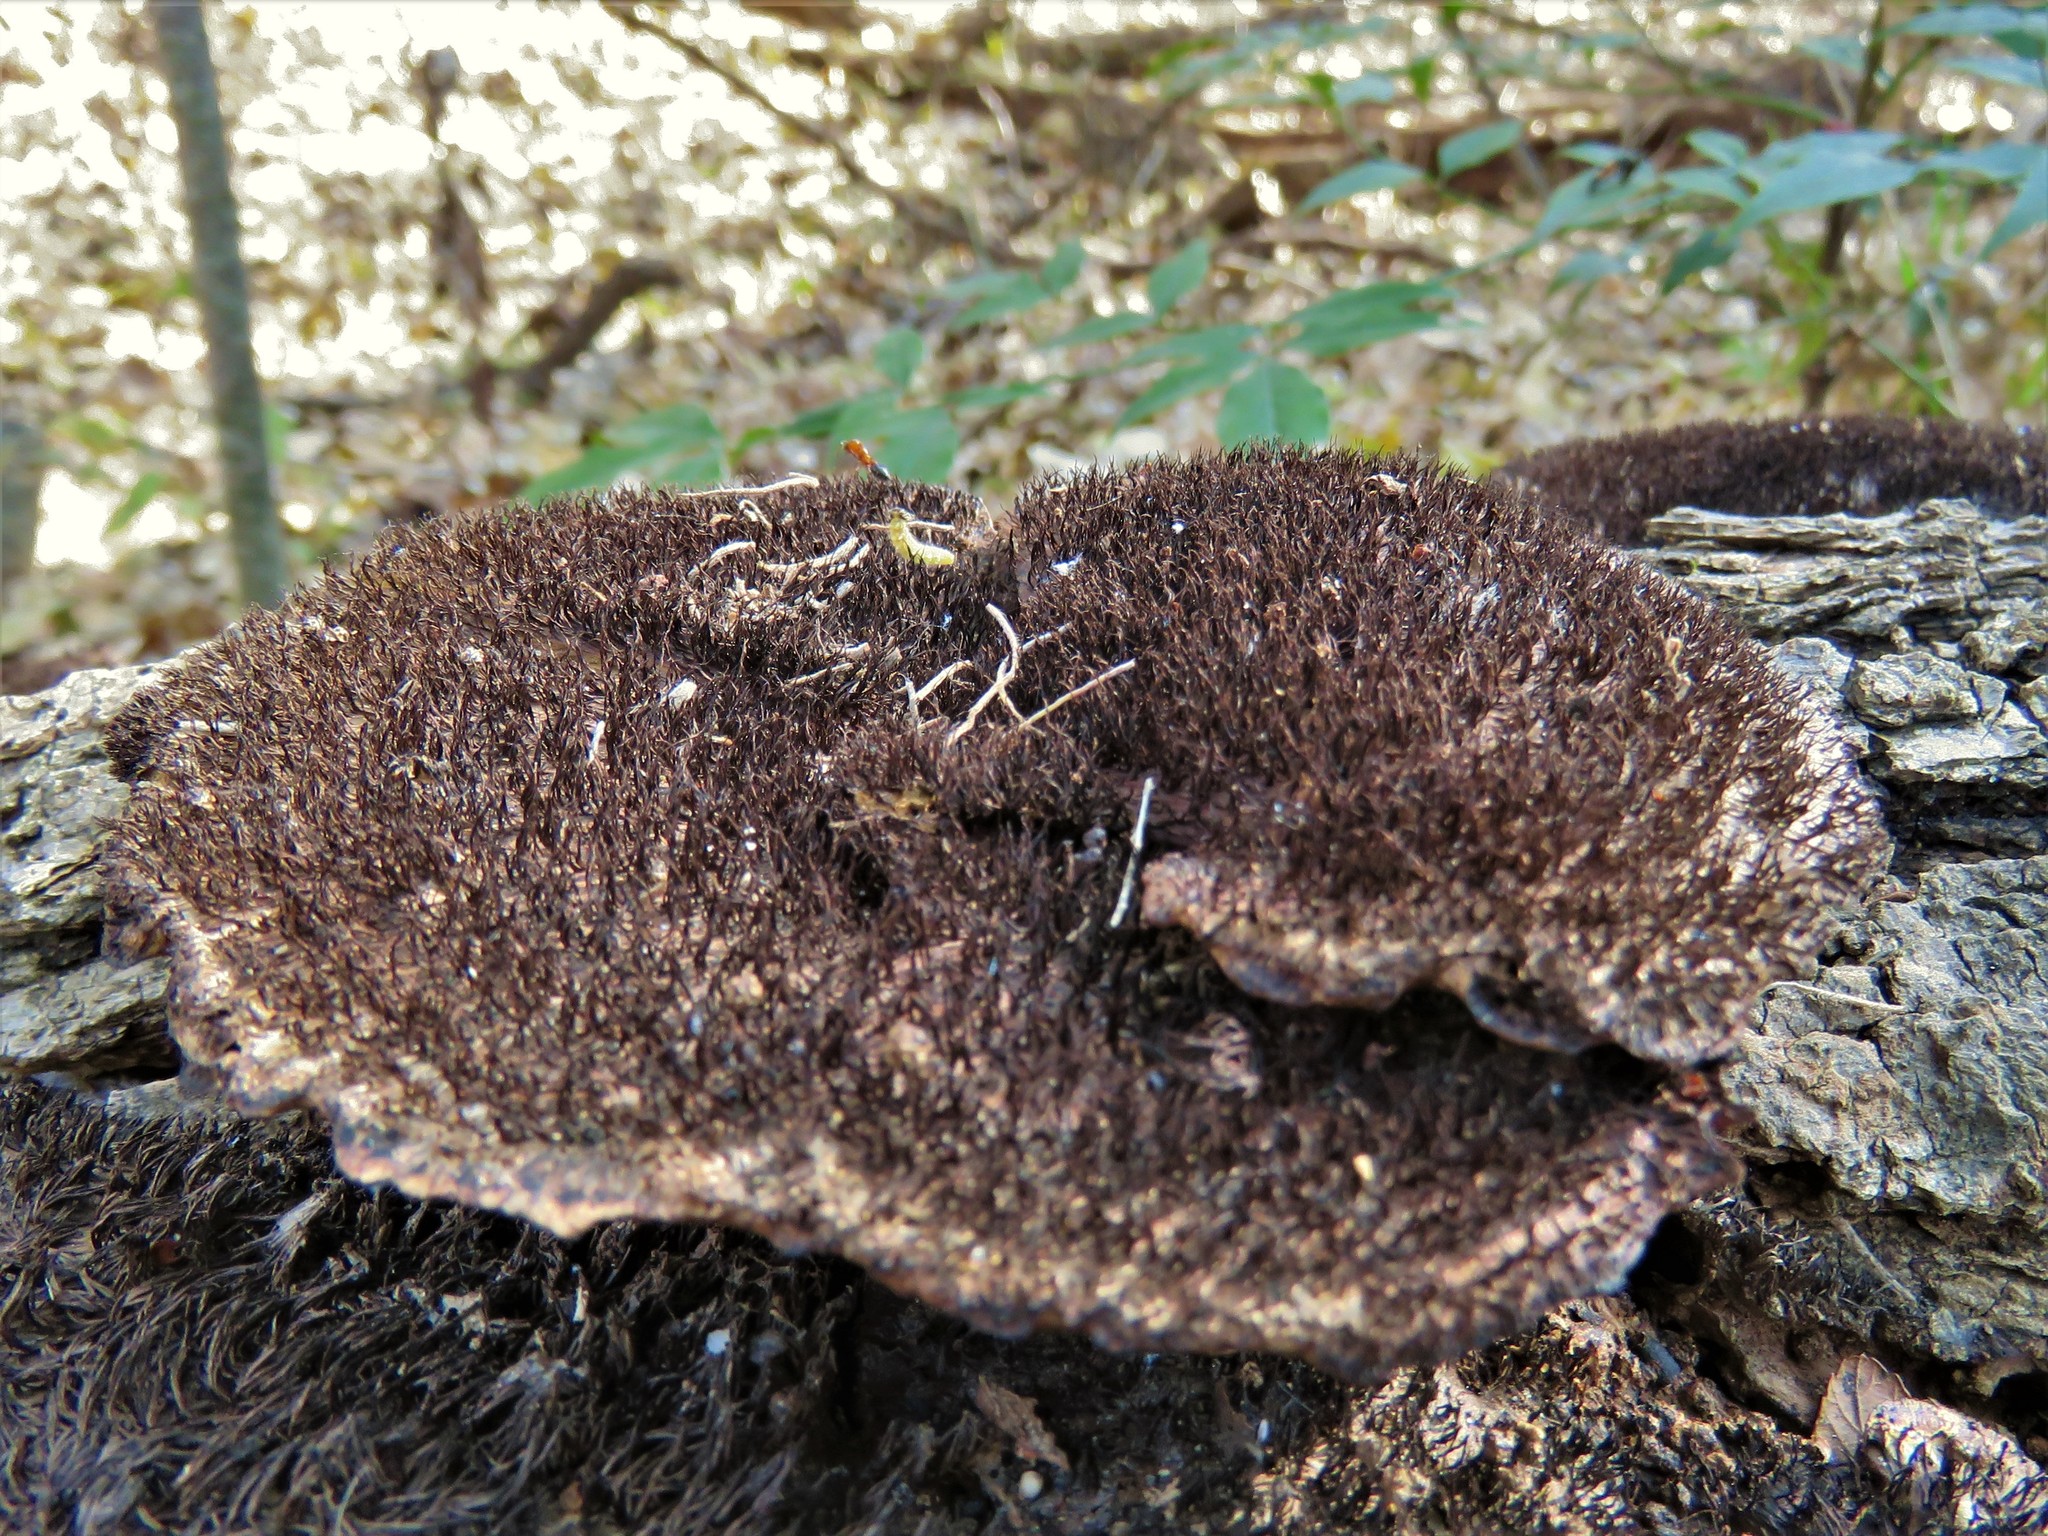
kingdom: Fungi
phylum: Basidiomycota
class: Agaricomycetes
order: Polyporales
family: Cerrenaceae
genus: Cerrena
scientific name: Cerrena hydnoides
